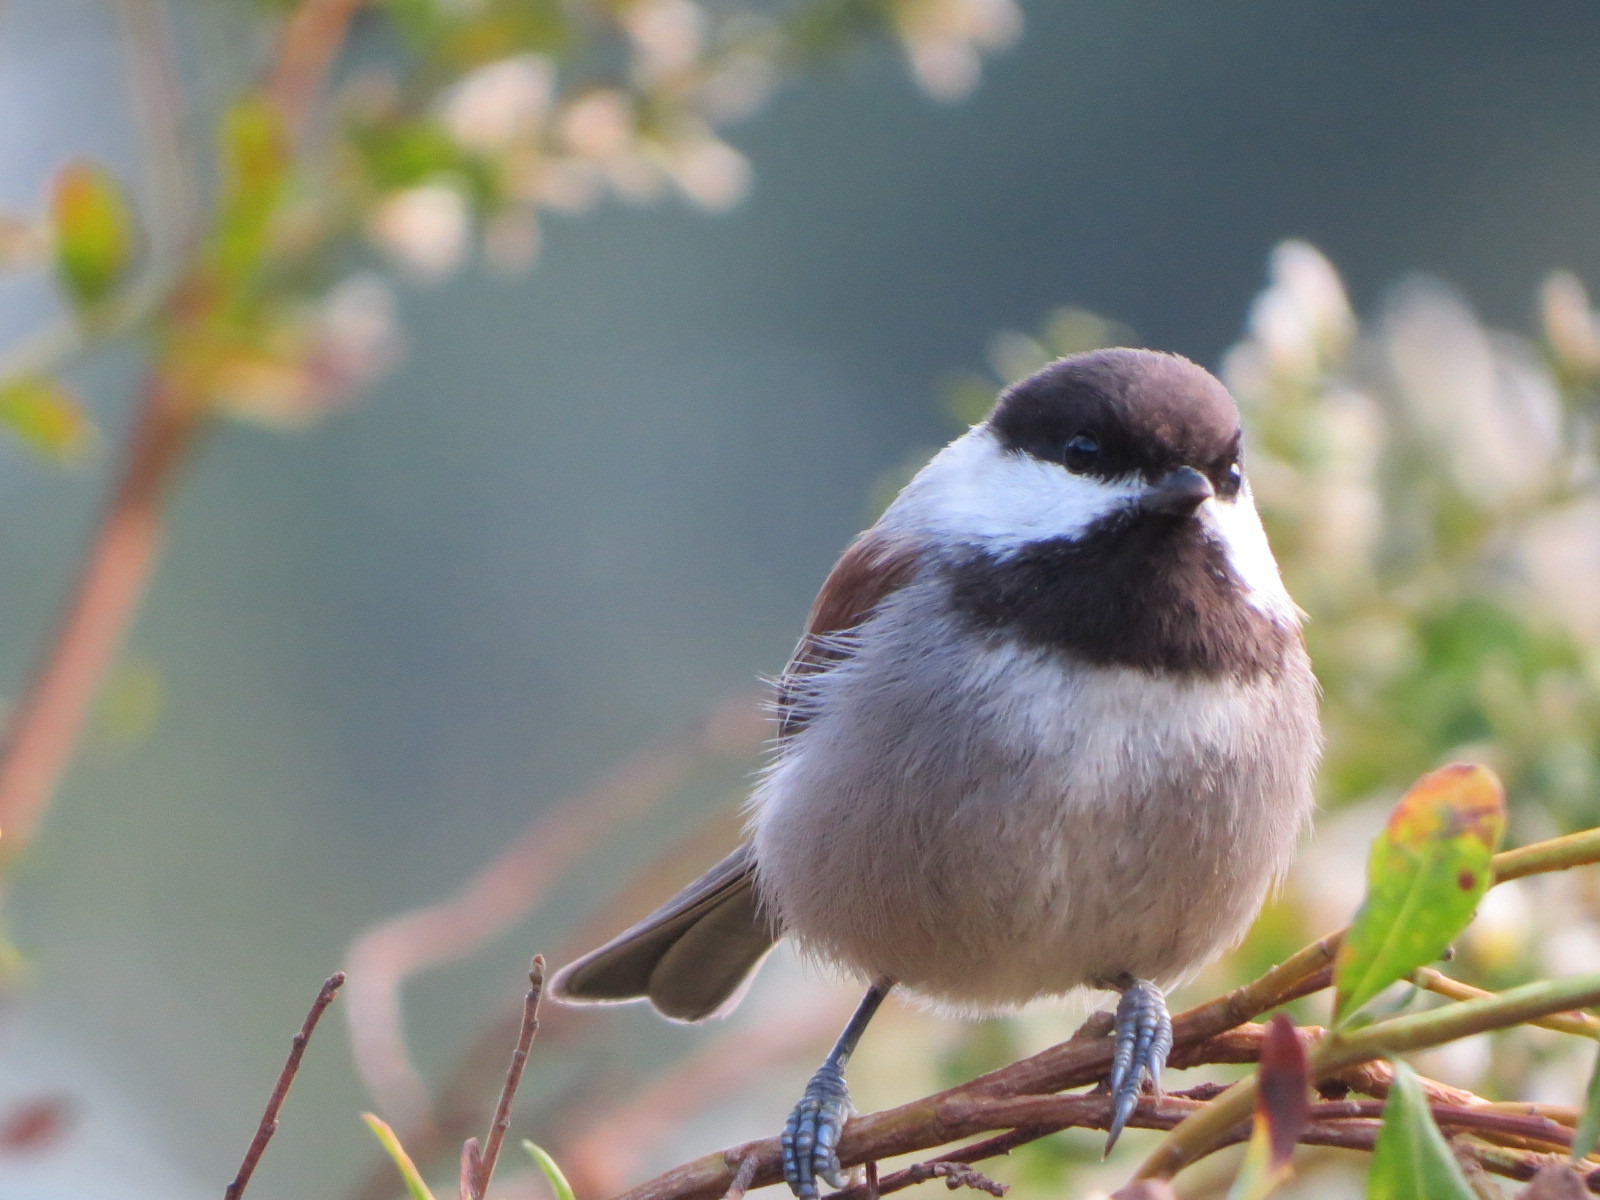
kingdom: Animalia
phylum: Chordata
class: Aves
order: Passeriformes
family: Paridae
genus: Poecile
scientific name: Poecile rufescens
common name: Chestnut-backed chickadee
